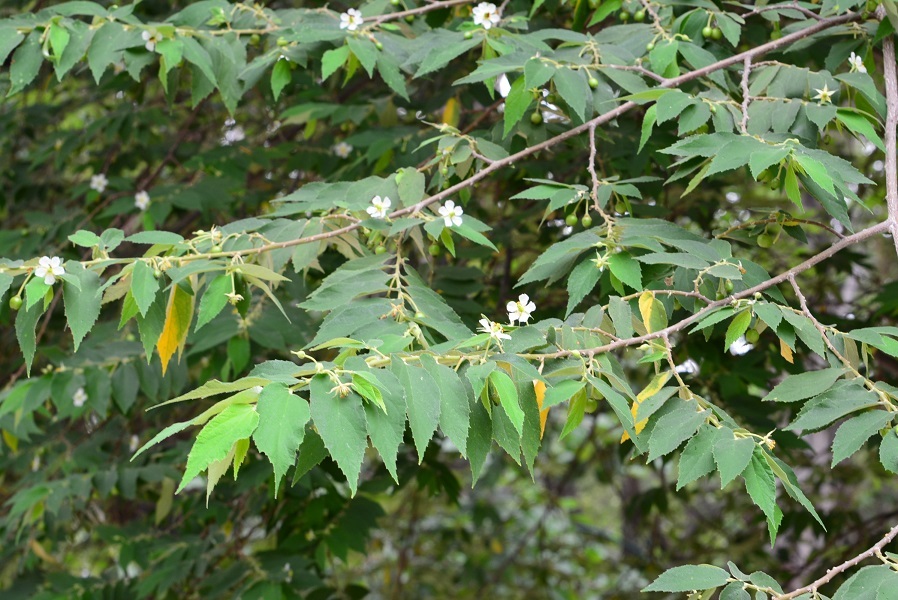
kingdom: Plantae
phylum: Tracheophyta
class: Magnoliopsida
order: Malvales
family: Muntingiaceae
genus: Muntingia
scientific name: Muntingia calabura
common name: Strawberrytree
